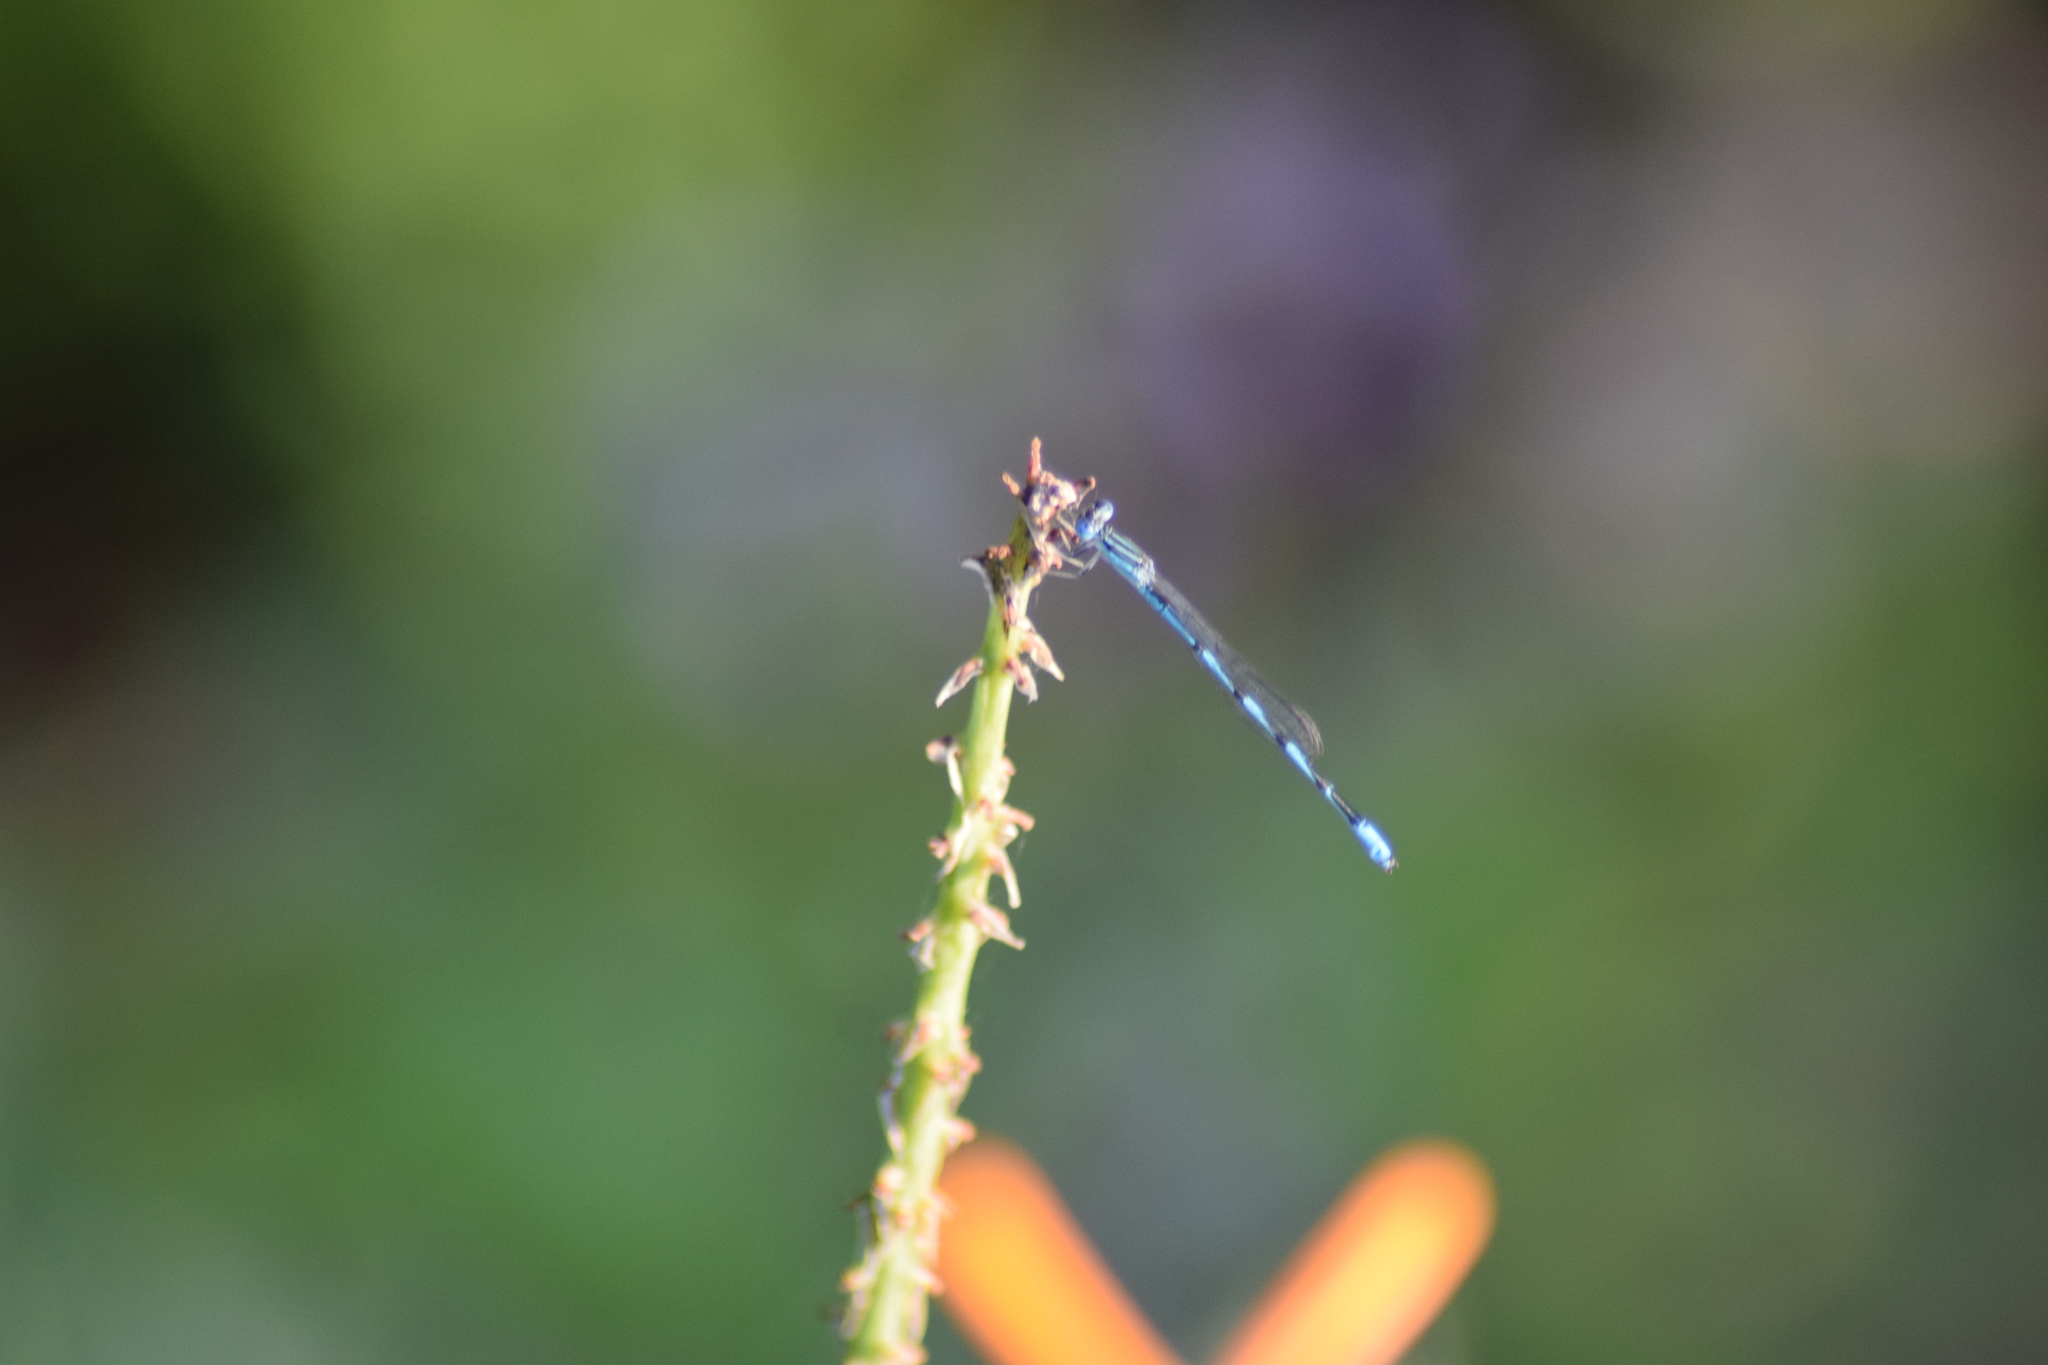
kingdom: Animalia
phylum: Arthropoda
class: Insecta
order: Odonata
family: Coenagrionidae
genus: Enallagma
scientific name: Enallagma basidens
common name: Double-striped bluet
